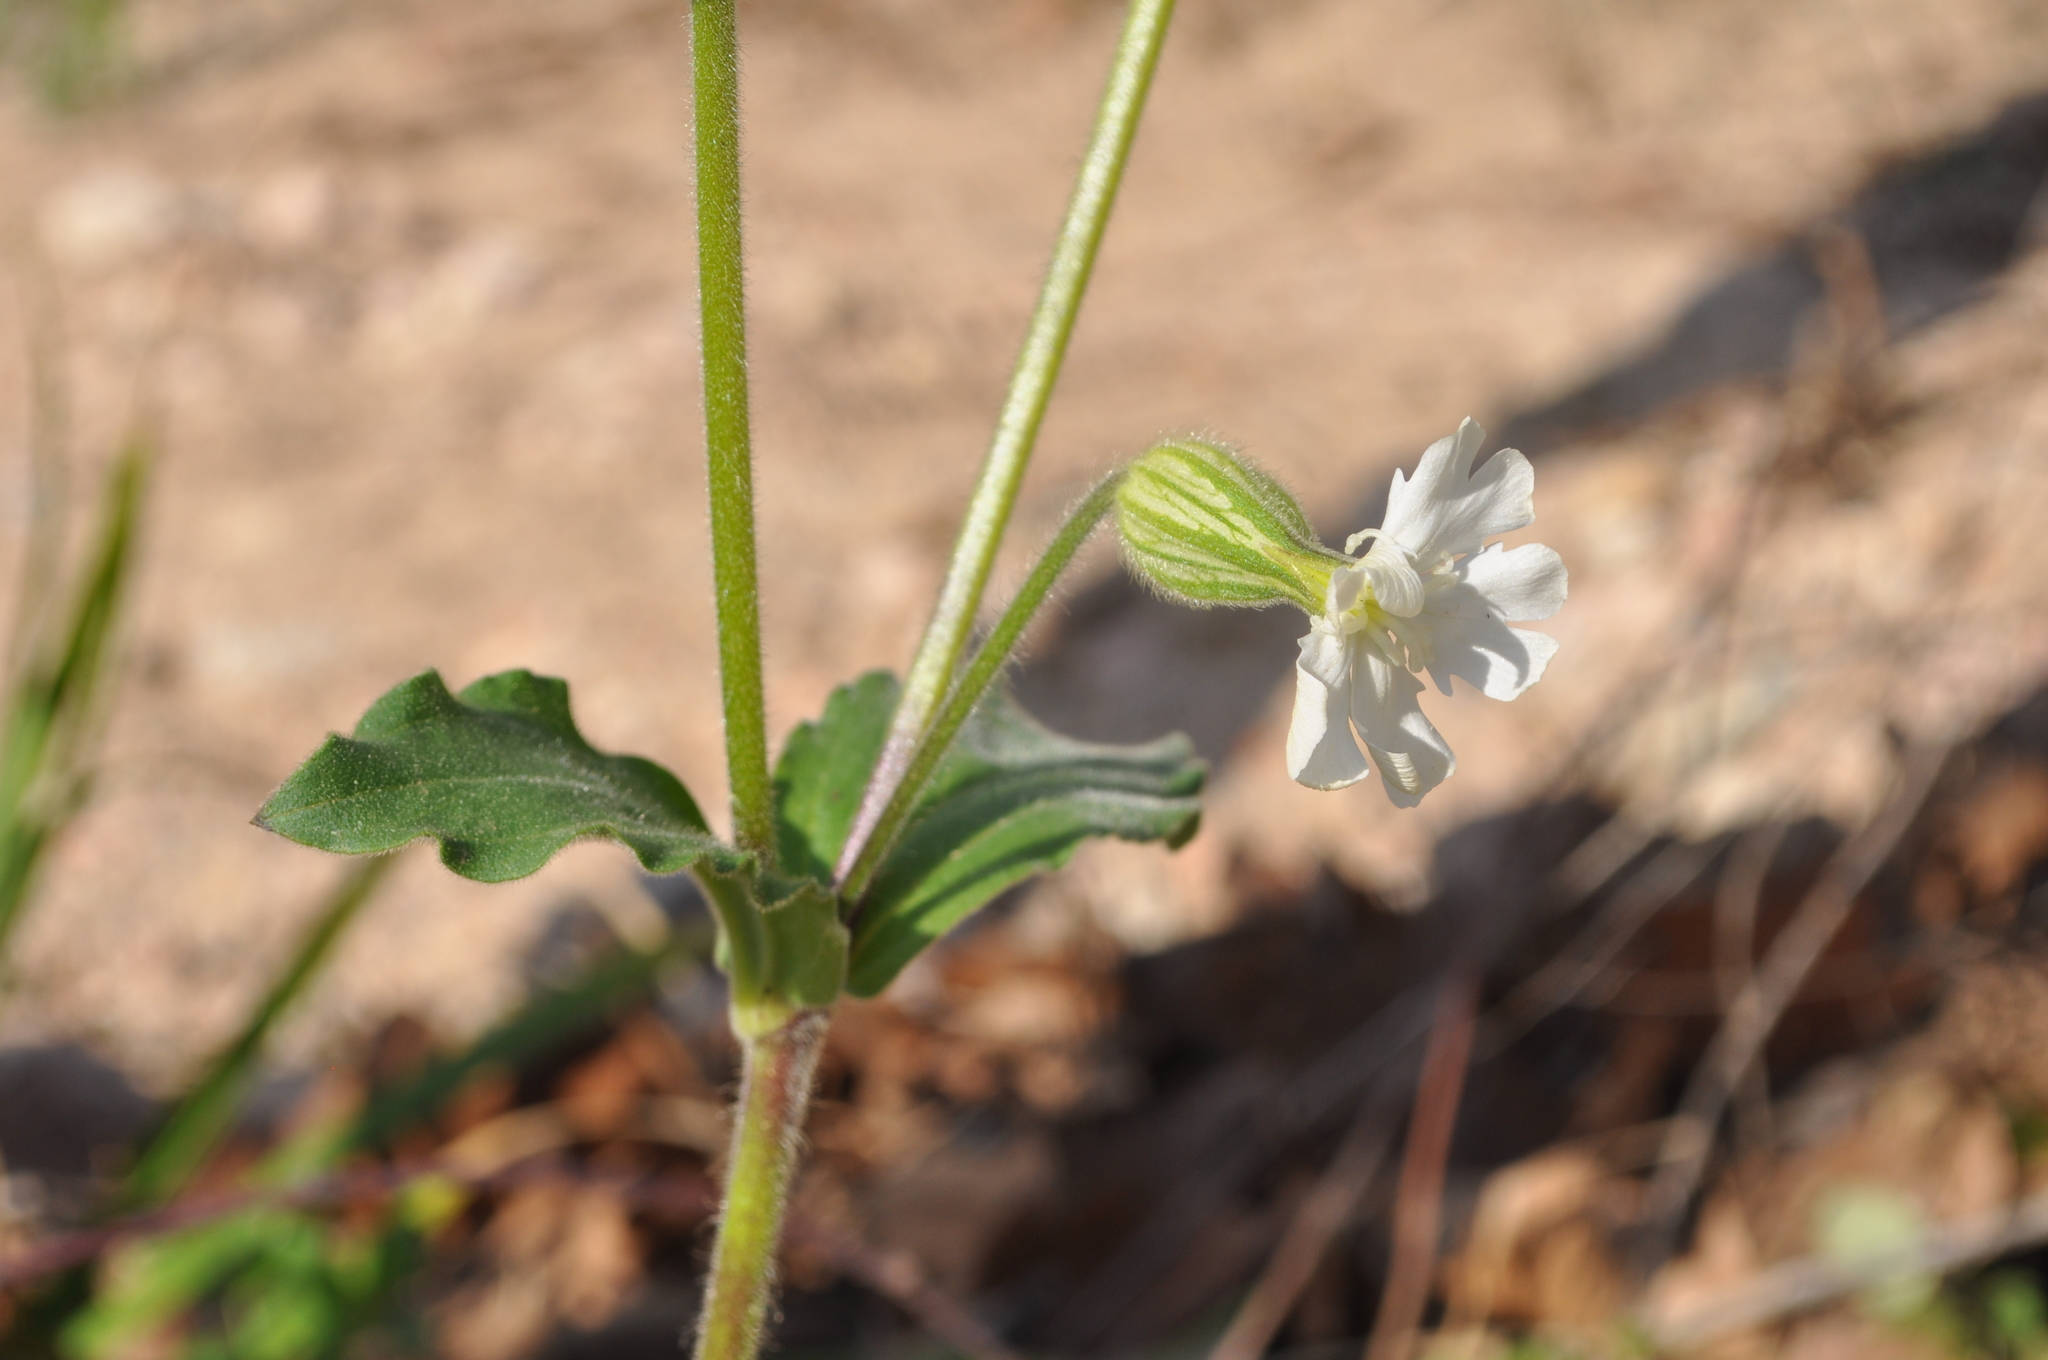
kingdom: Plantae
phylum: Tracheophyta
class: Magnoliopsida
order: Caryophyllales
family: Caryophyllaceae
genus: Silene
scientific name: Silene latifolia
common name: White campion
